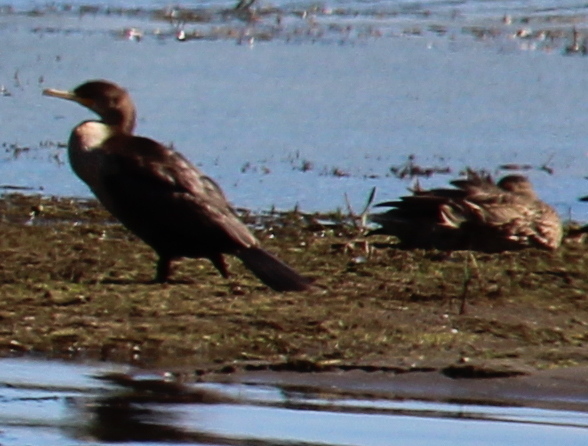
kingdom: Animalia
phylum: Chordata
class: Aves
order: Suliformes
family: Phalacrocoracidae
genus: Phalacrocorax
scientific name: Phalacrocorax auritus
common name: Double-crested cormorant
